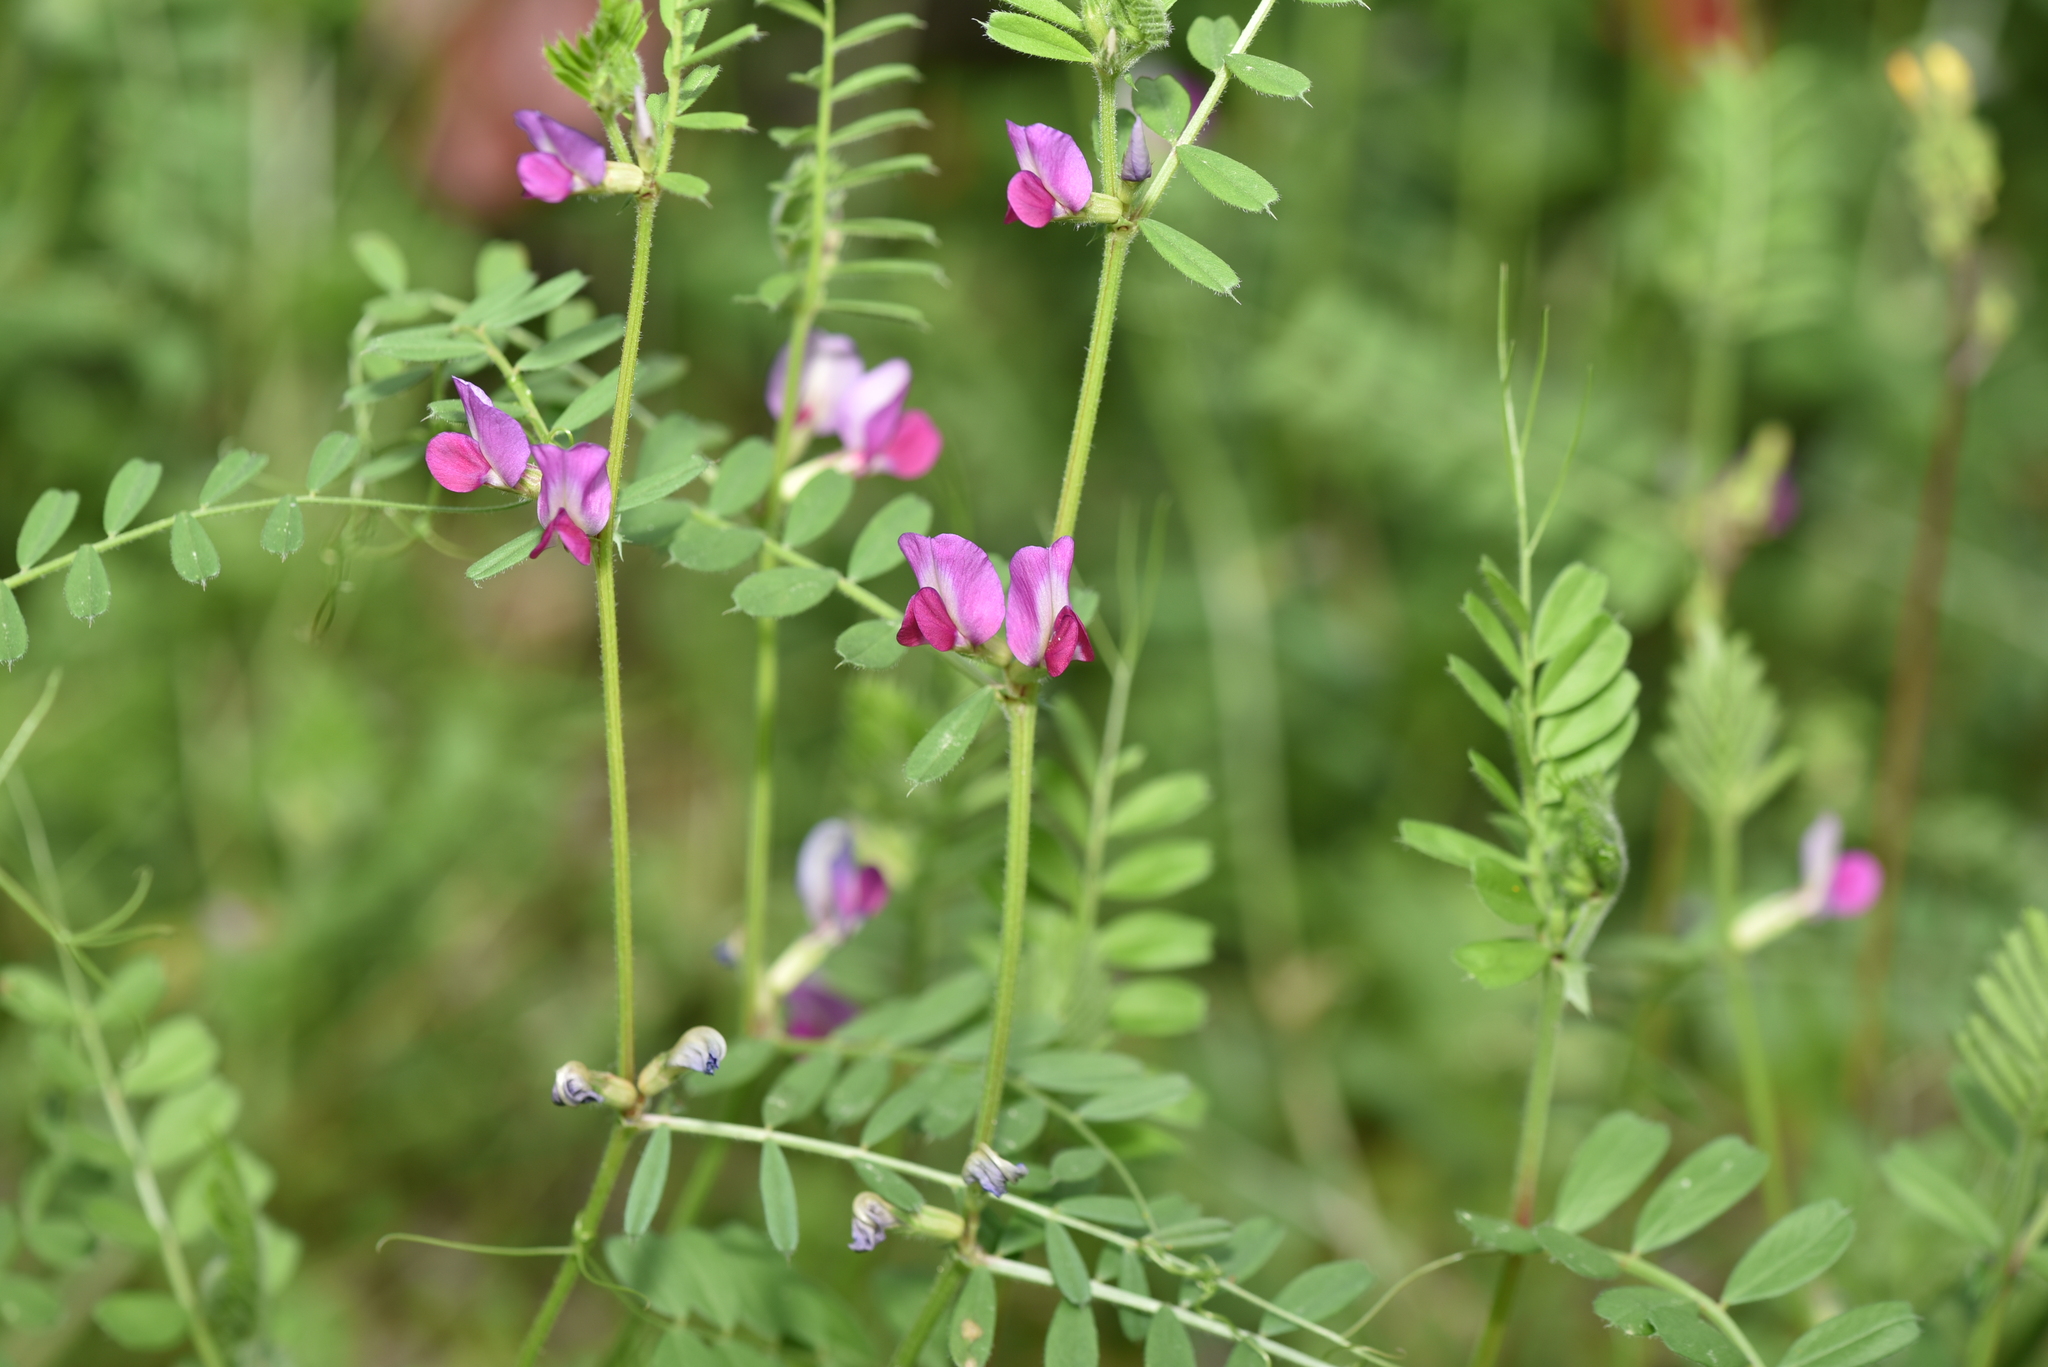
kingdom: Plantae
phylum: Tracheophyta
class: Magnoliopsida
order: Fabales
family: Fabaceae
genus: Vicia
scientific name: Vicia sativa
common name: Garden vetch
